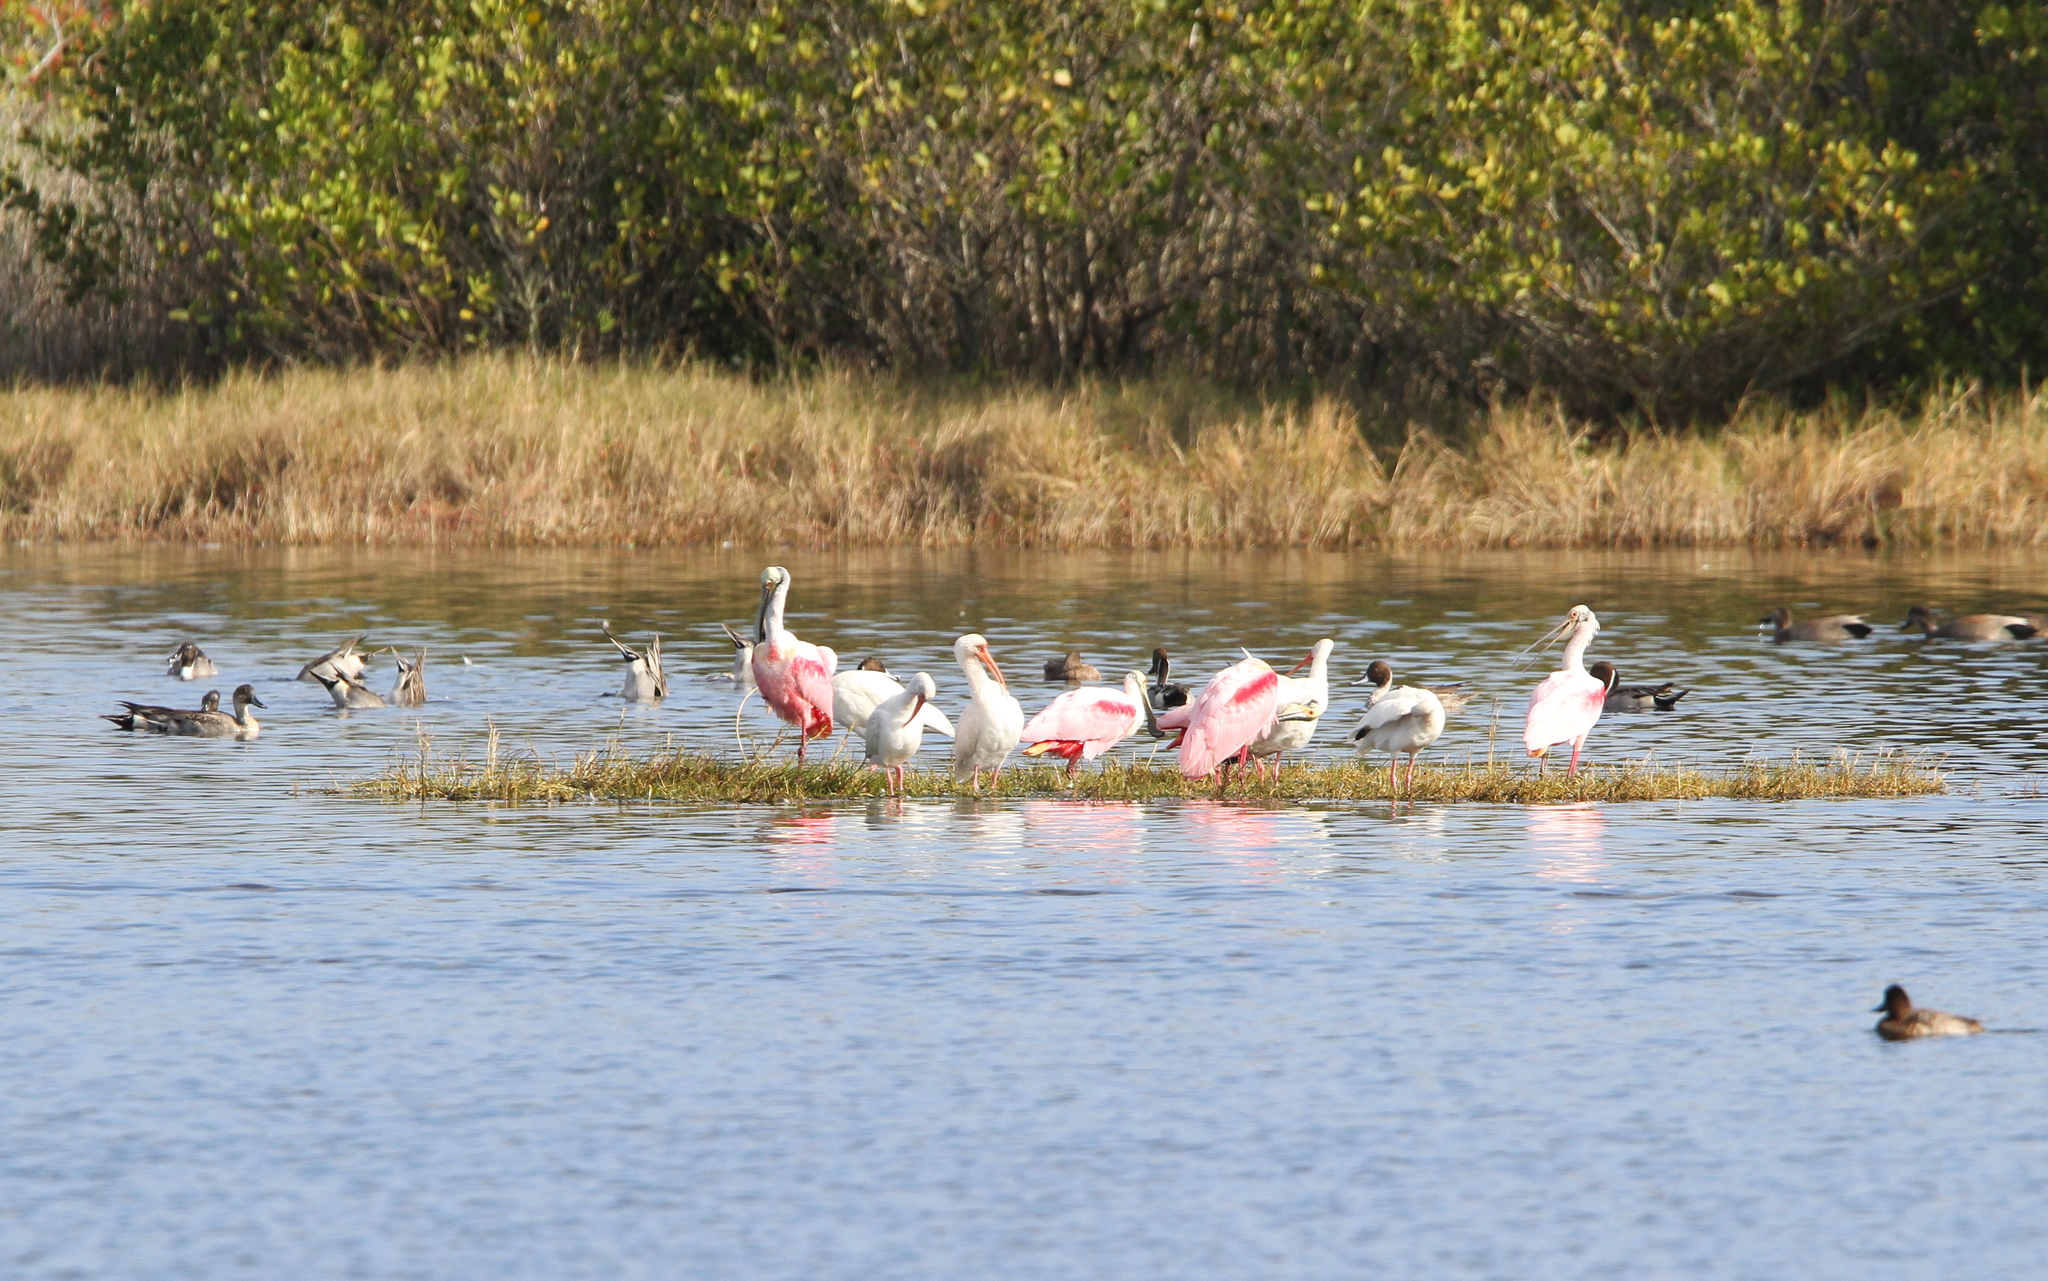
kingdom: Animalia
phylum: Chordata
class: Aves
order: Pelecaniformes
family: Threskiornithidae
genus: Platalea
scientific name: Platalea ajaja
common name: Roseate spoonbill
